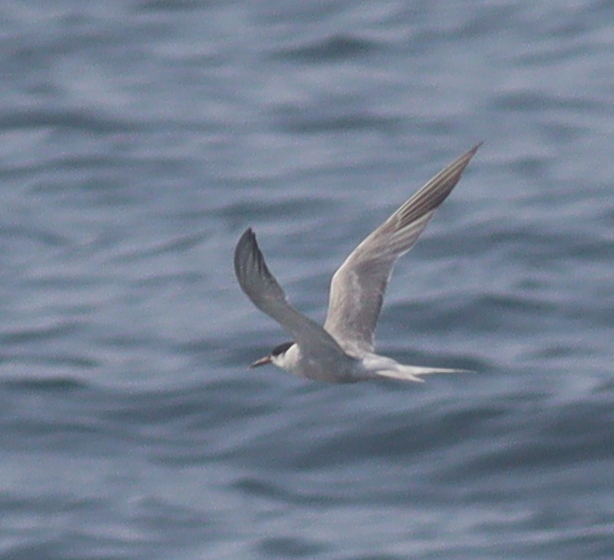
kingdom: Animalia
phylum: Chordata
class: Aves
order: Charadriiformes
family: Laridae
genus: Sterna
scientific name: Sterna hirundo
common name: Common tern
